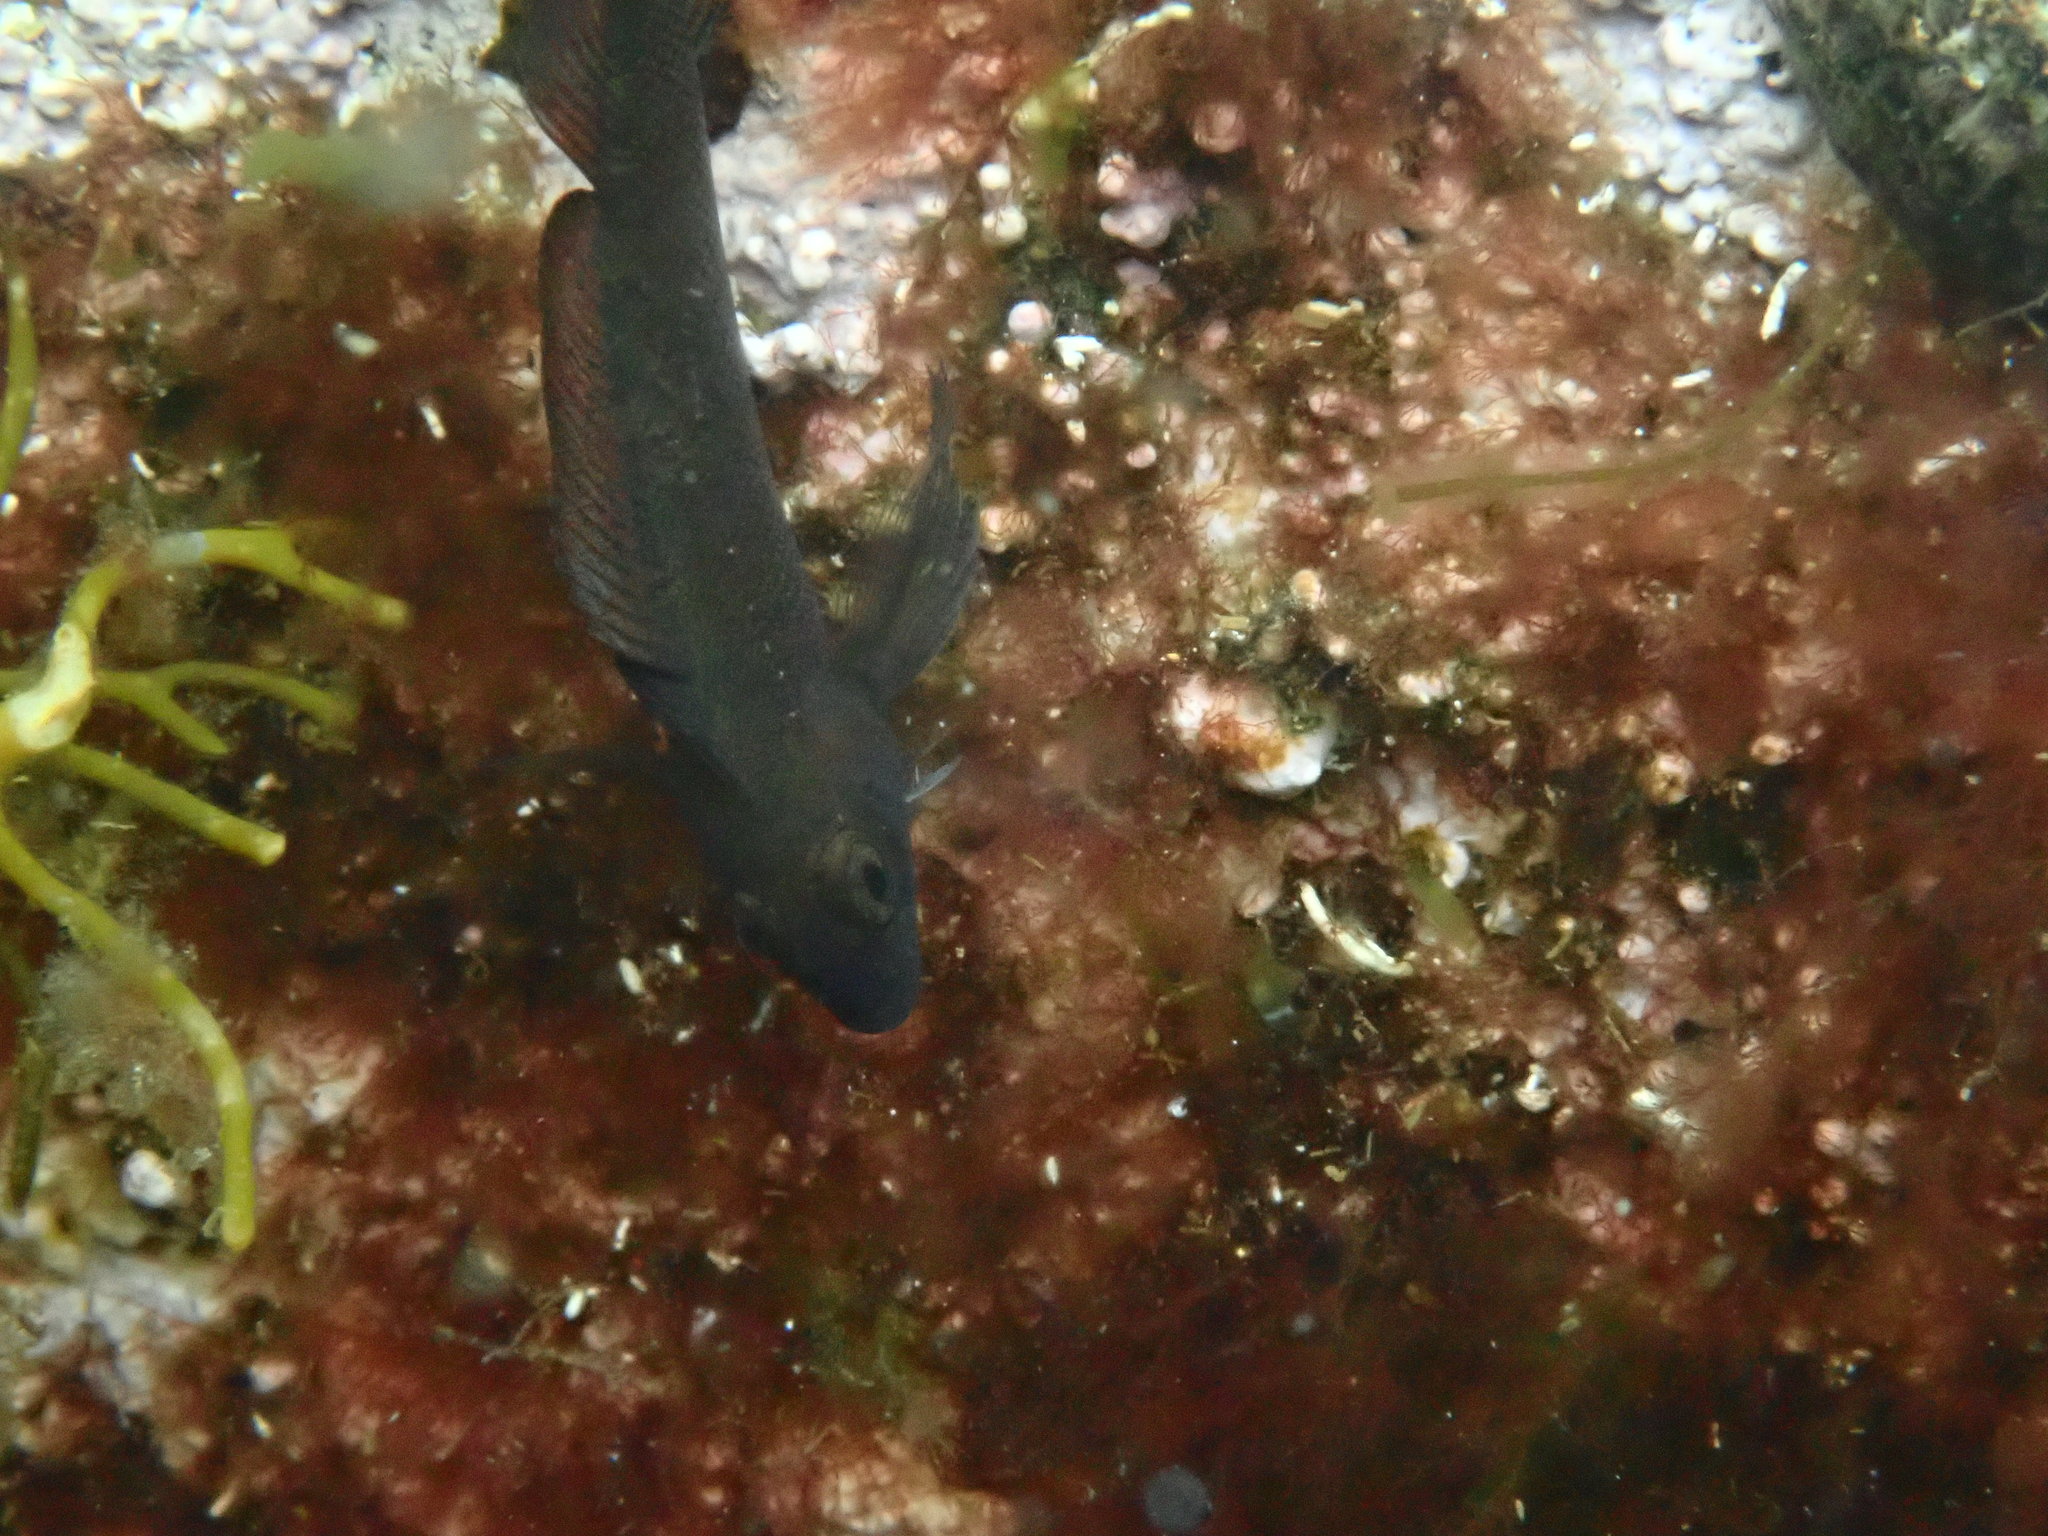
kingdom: Animalia
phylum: Chordata
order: Perciformes
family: Tripterygiidae
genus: Forsterygion
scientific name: Forsterygion lapillum
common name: Common triplefin
